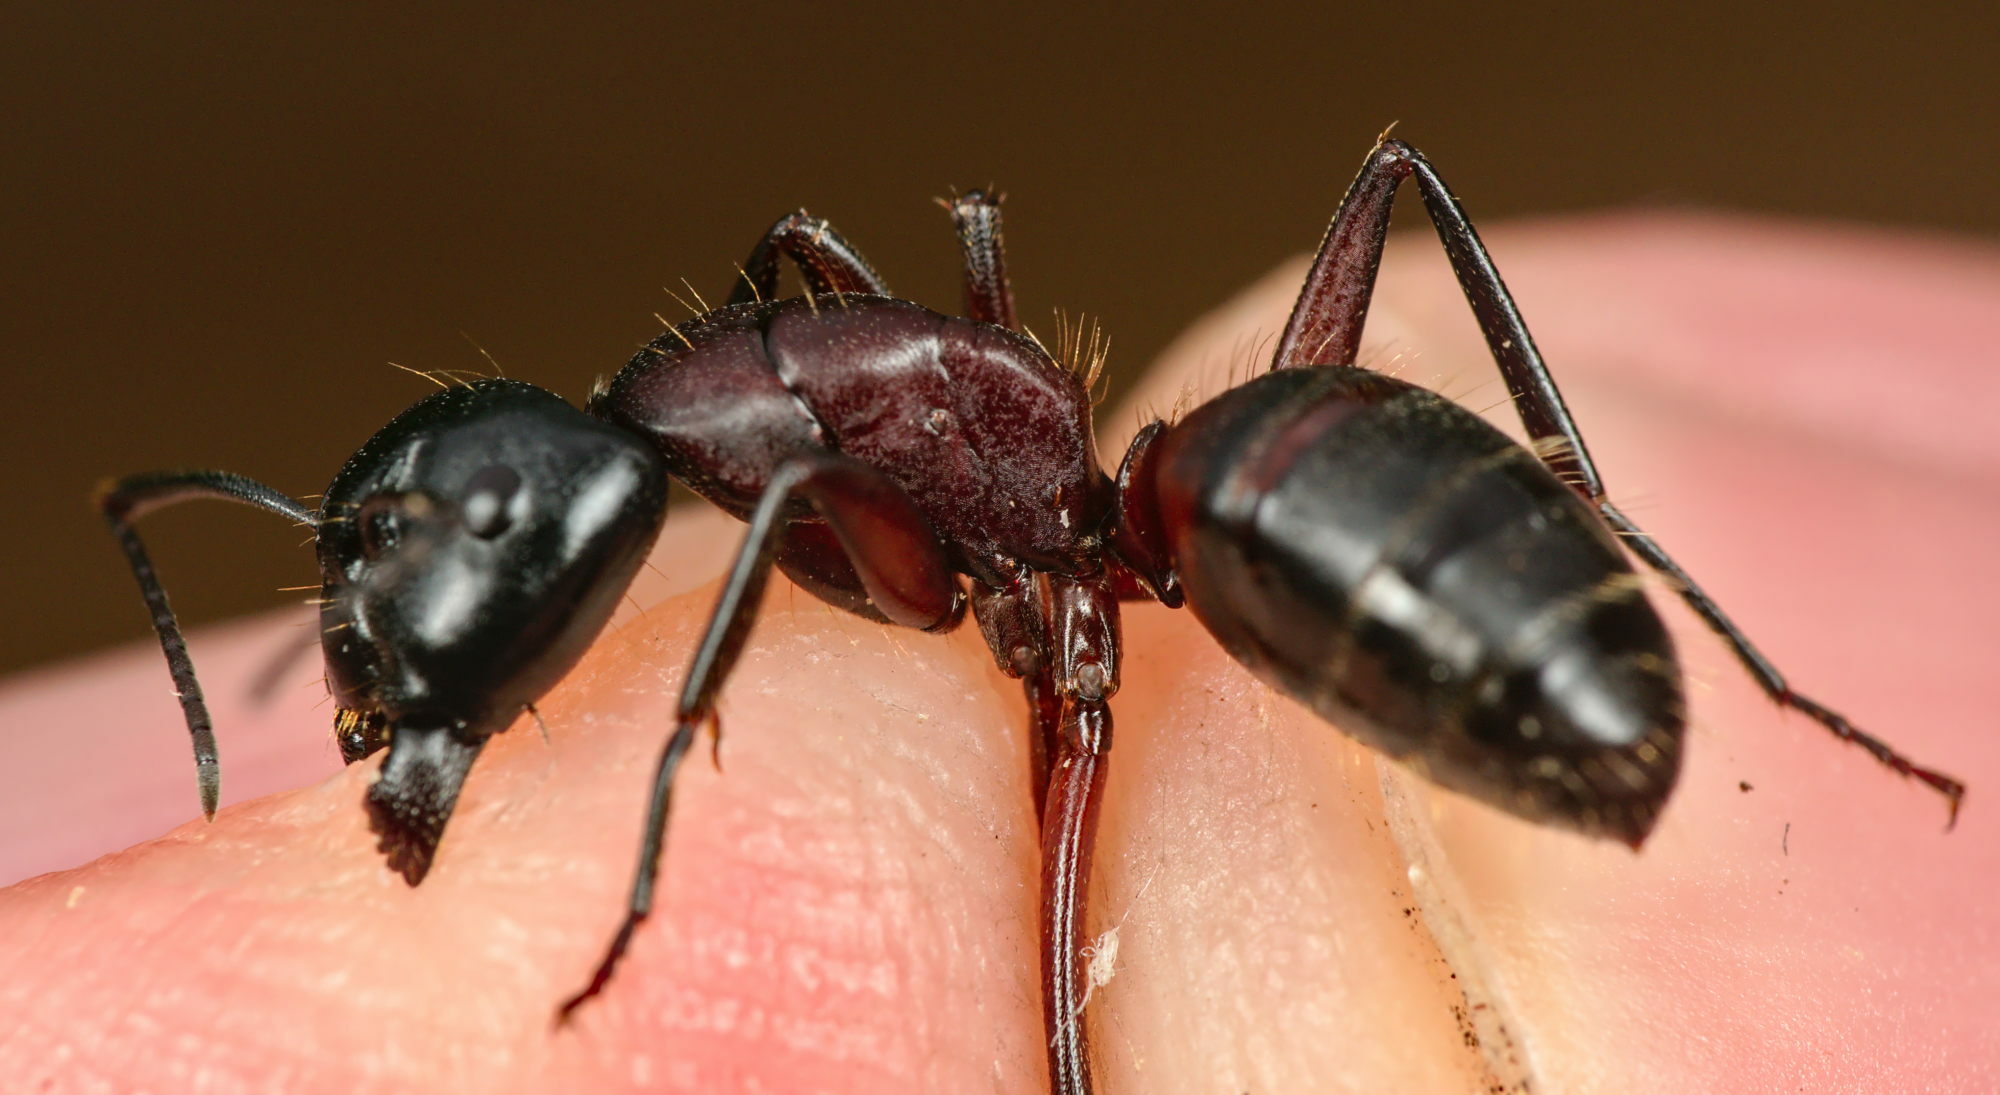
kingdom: Animalia
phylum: Arthropoda
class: Insecta
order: Hymenoptera
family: Formicidae
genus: Camponotus
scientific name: Camponotus ligniperdus
